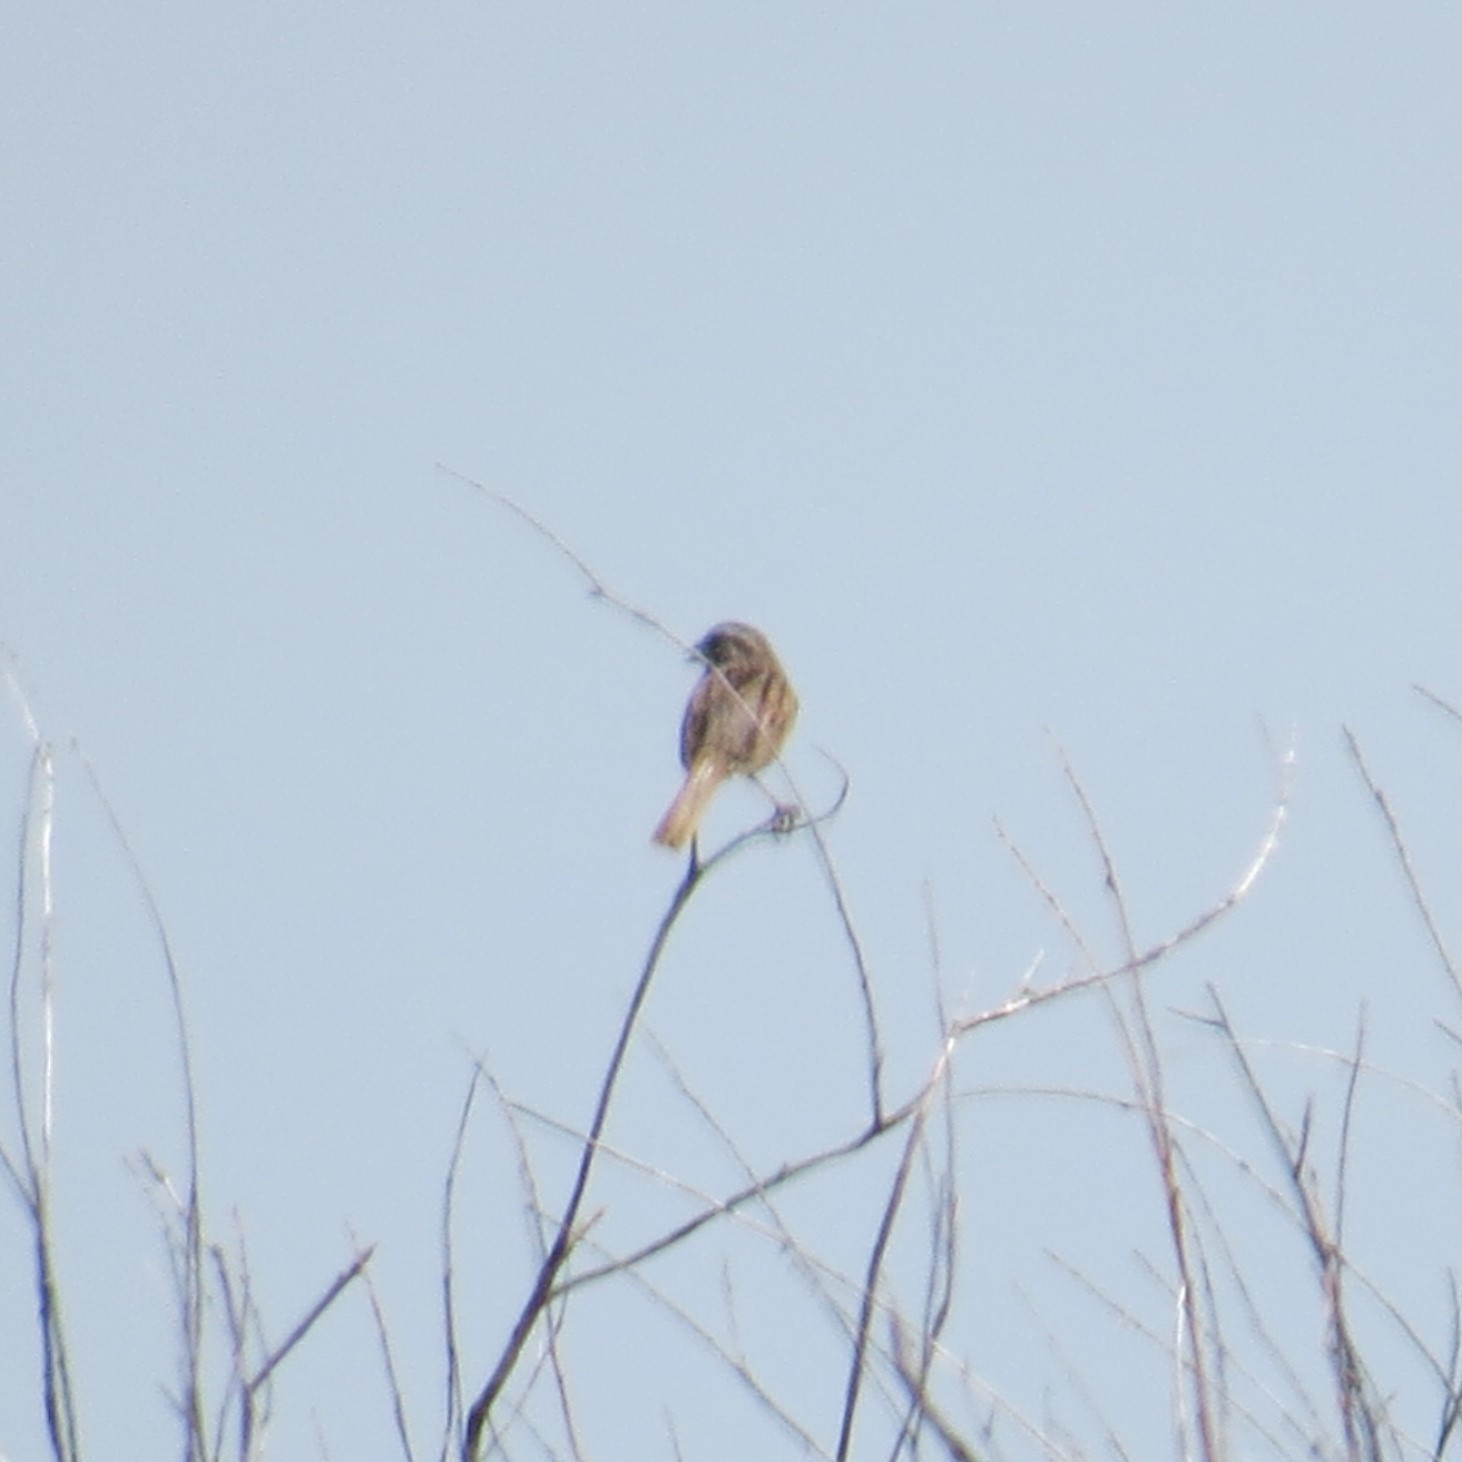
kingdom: Animalia
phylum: Chordata
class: Aves
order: Passeriformes
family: Passerellidae
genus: Melospiza
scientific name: Melospiza melodia
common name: Song sparrow
